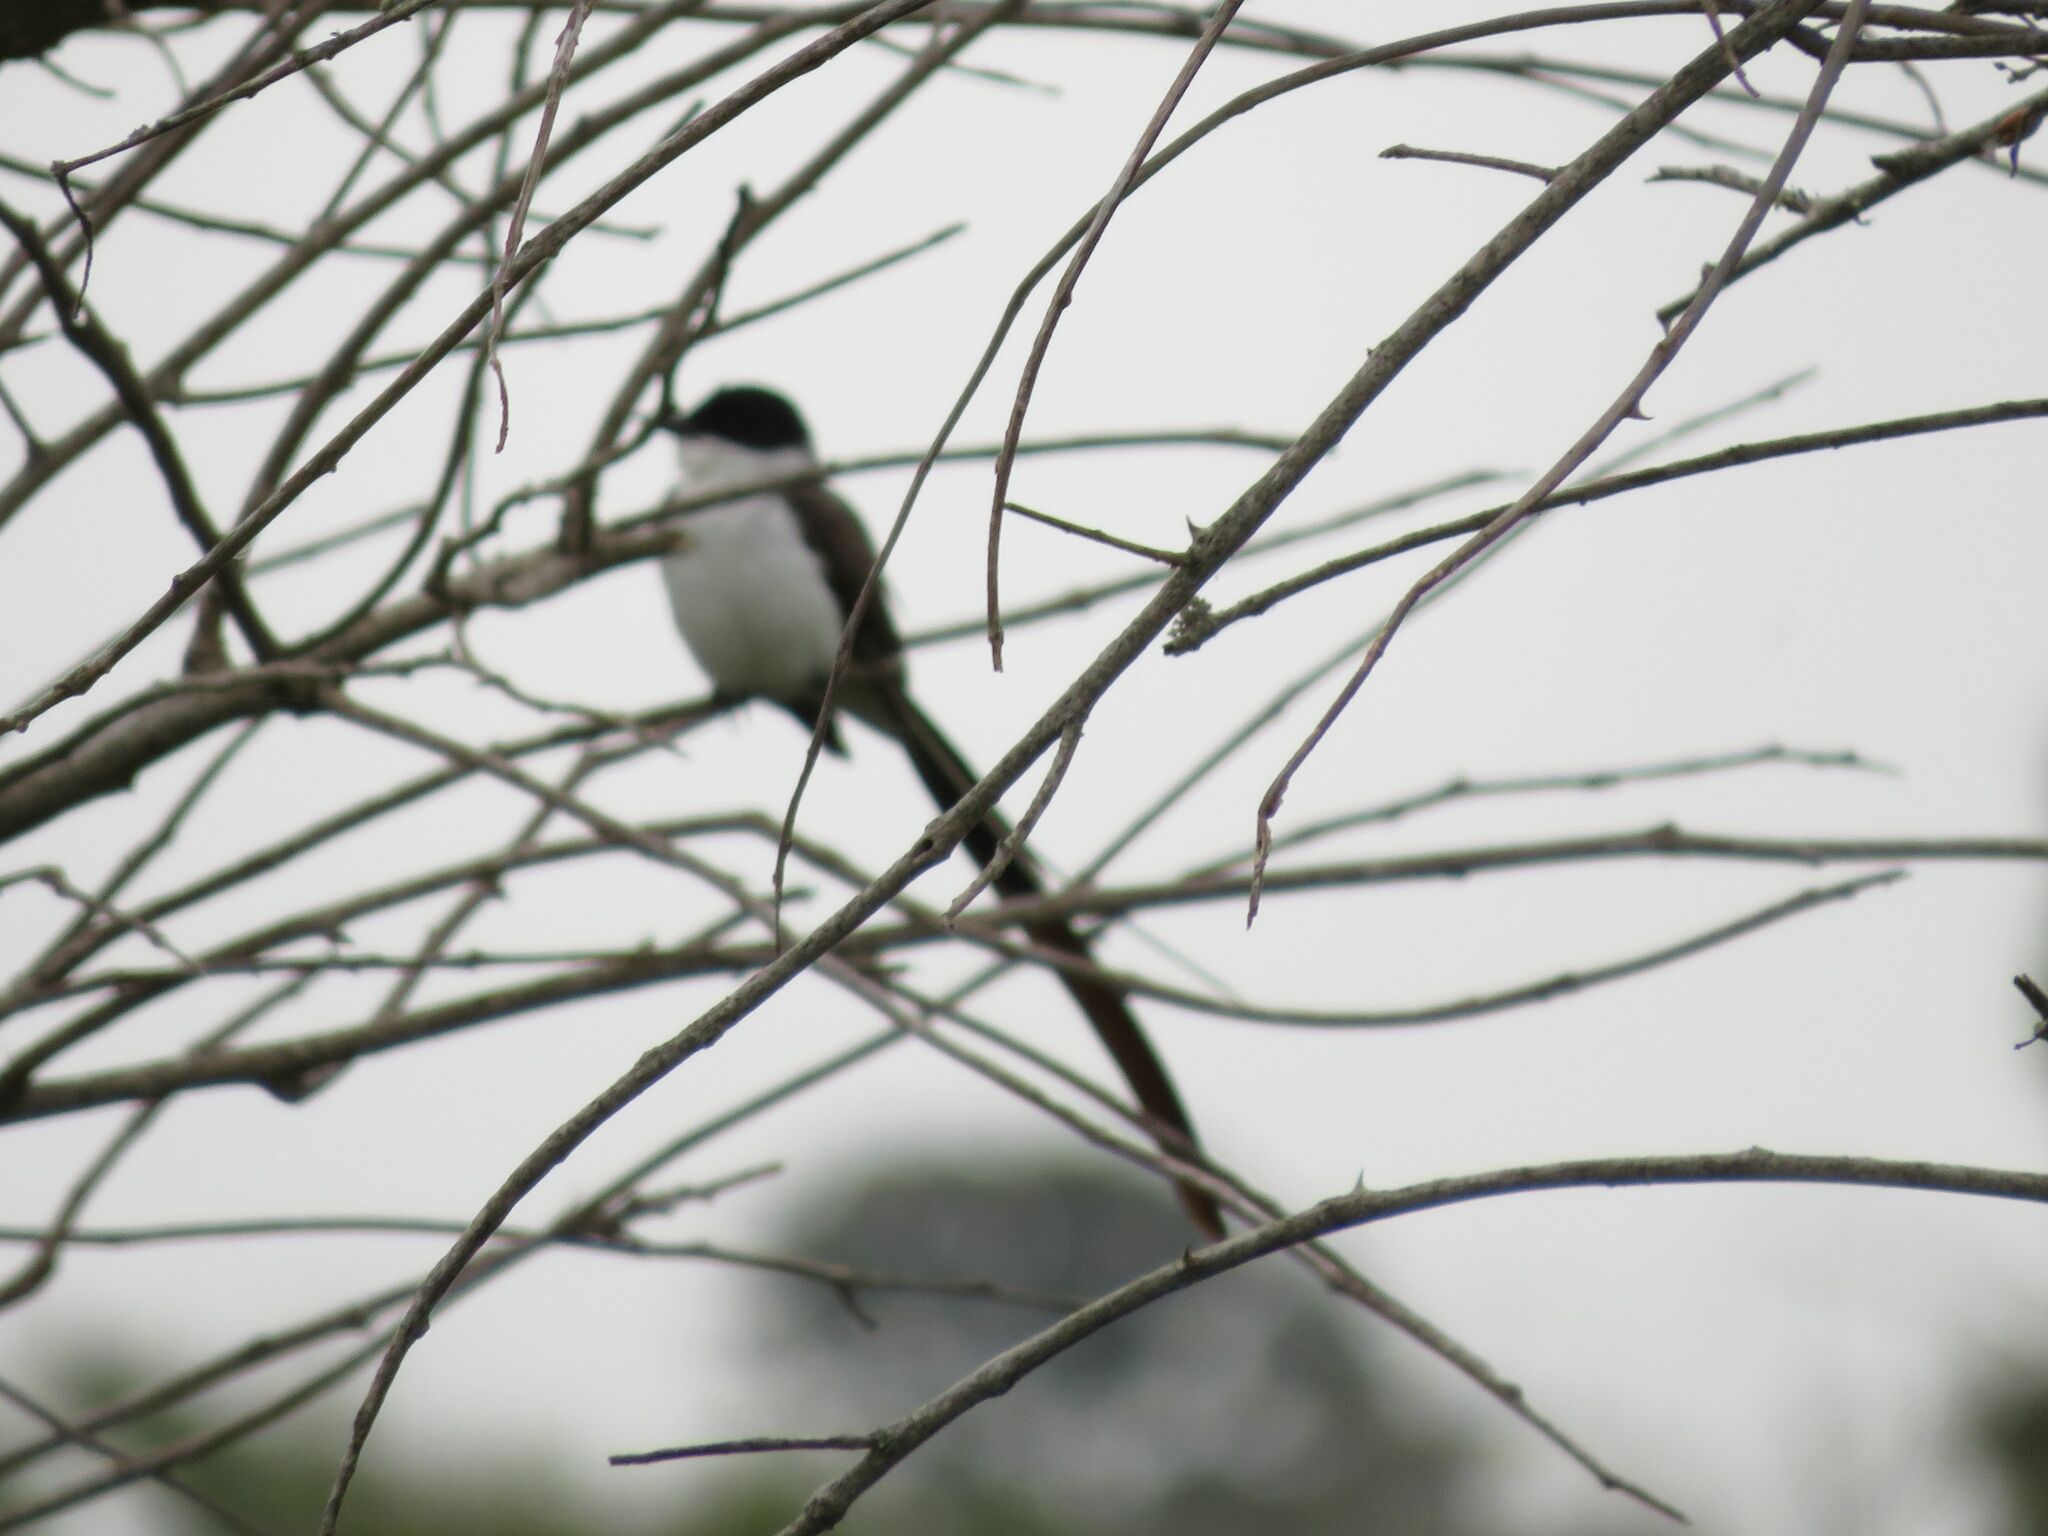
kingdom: Animalia
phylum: Chordata
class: Aves
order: Passeriformes
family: Tyrannidae
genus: Tyrannus
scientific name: Tyrannus savana
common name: Fork-tailed flycatcher
